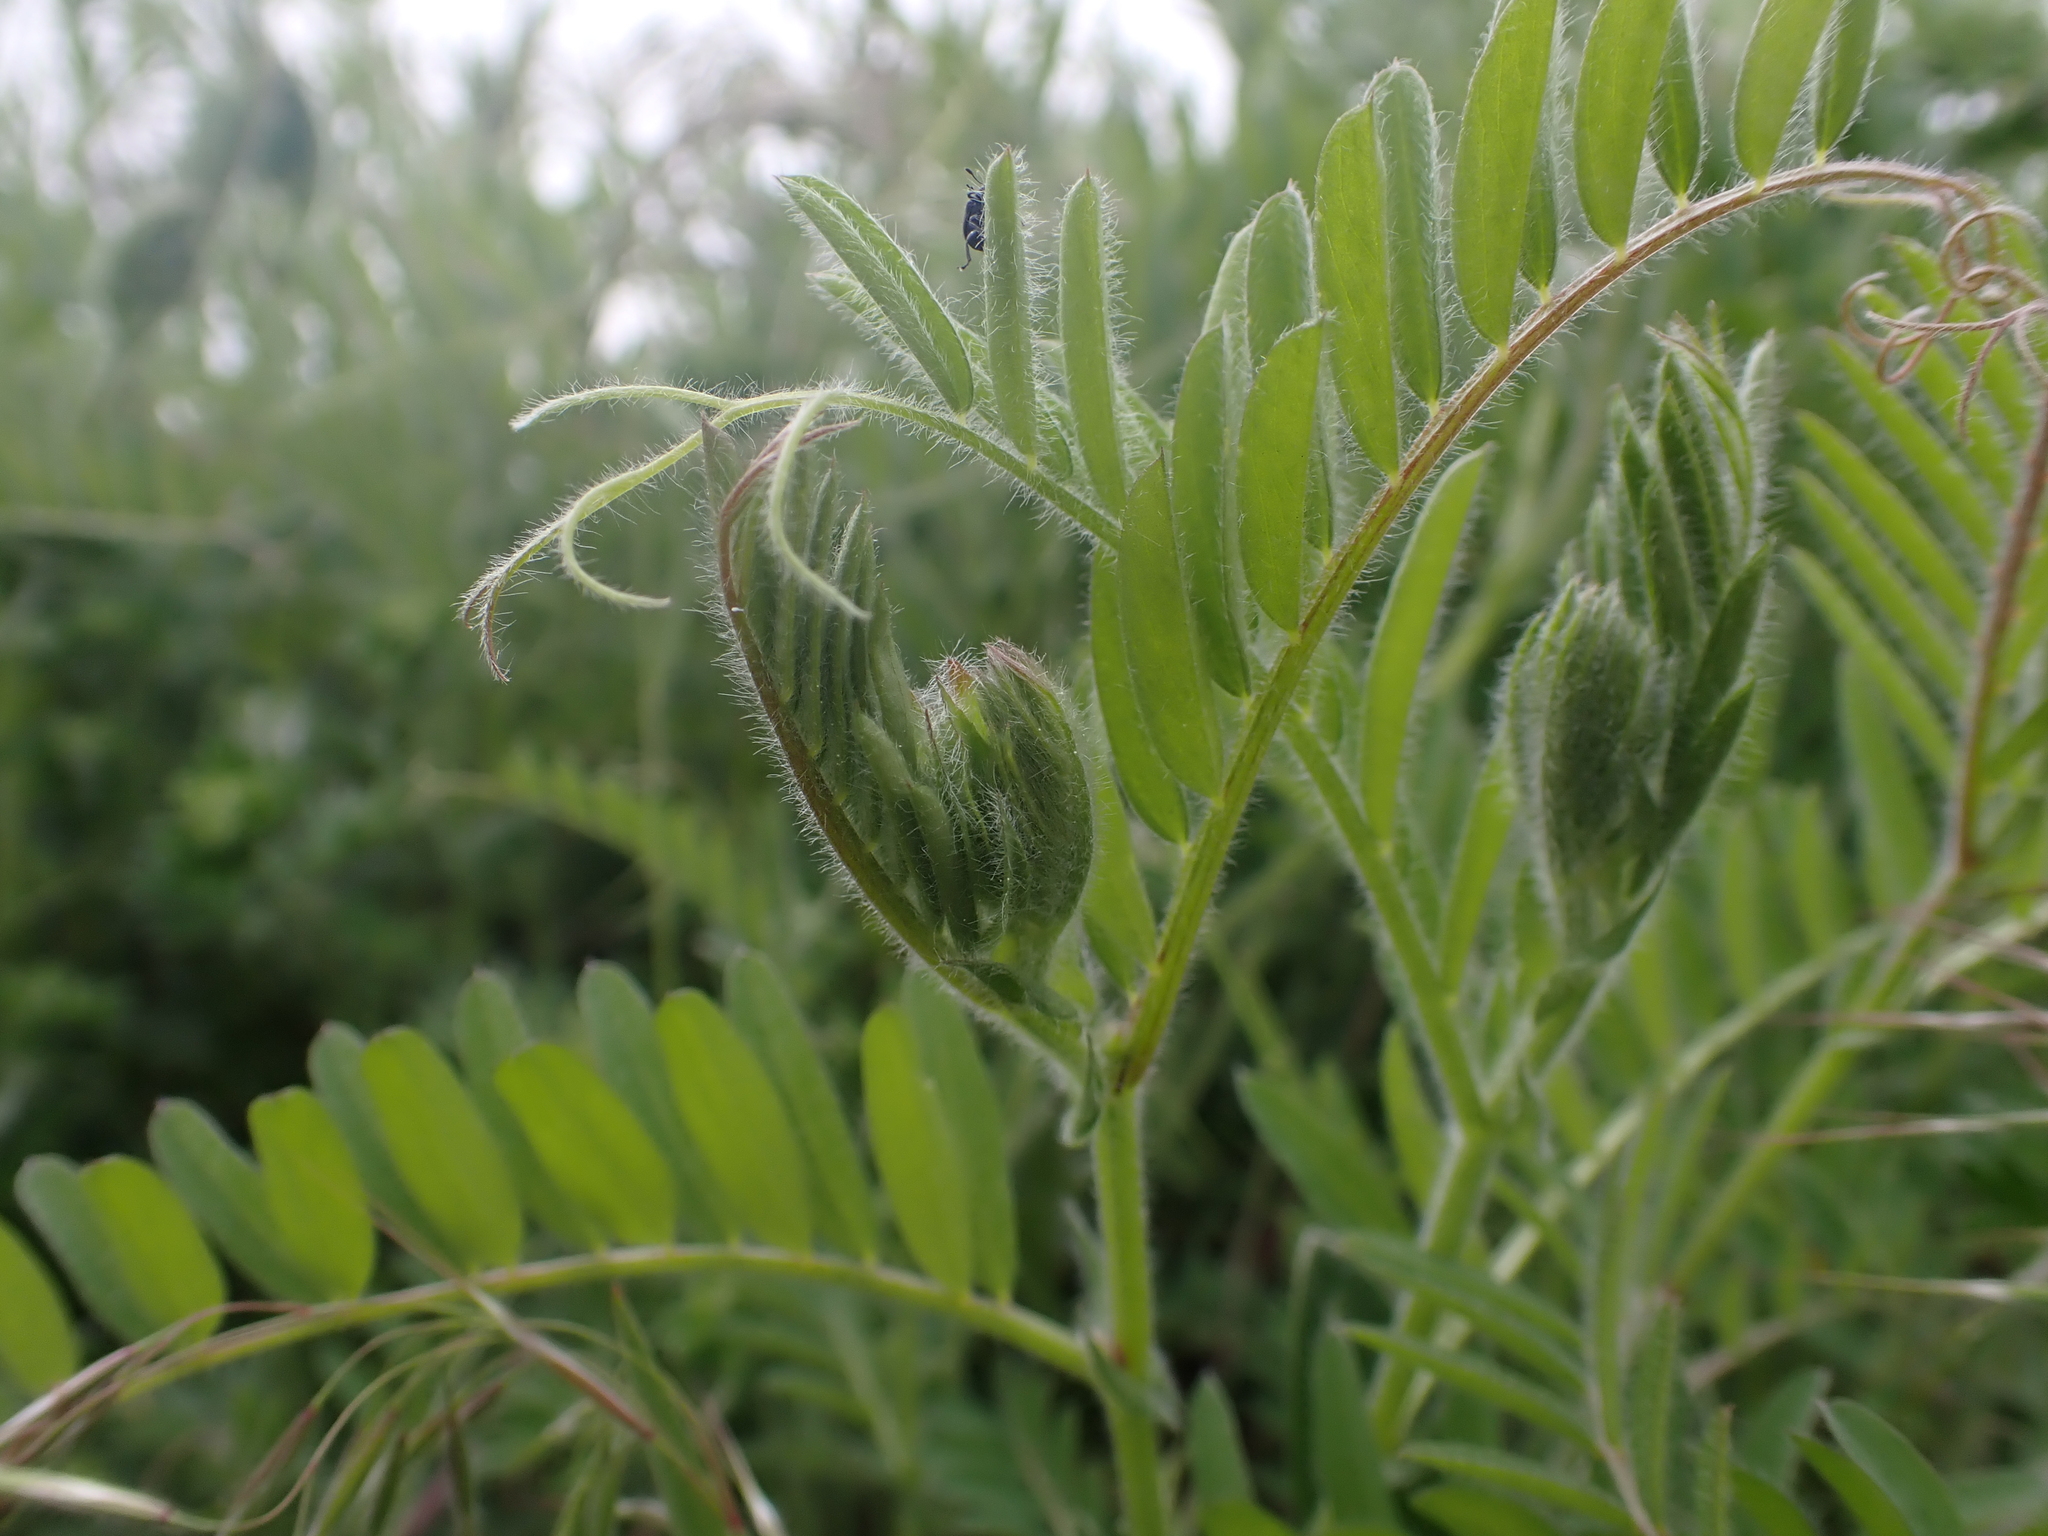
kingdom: Plantae
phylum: Tracheophyta
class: Magnoliopsida
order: Fabales
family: Fabaceae
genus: Vicia
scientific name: Vicia villosa
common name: Fodder vetch
